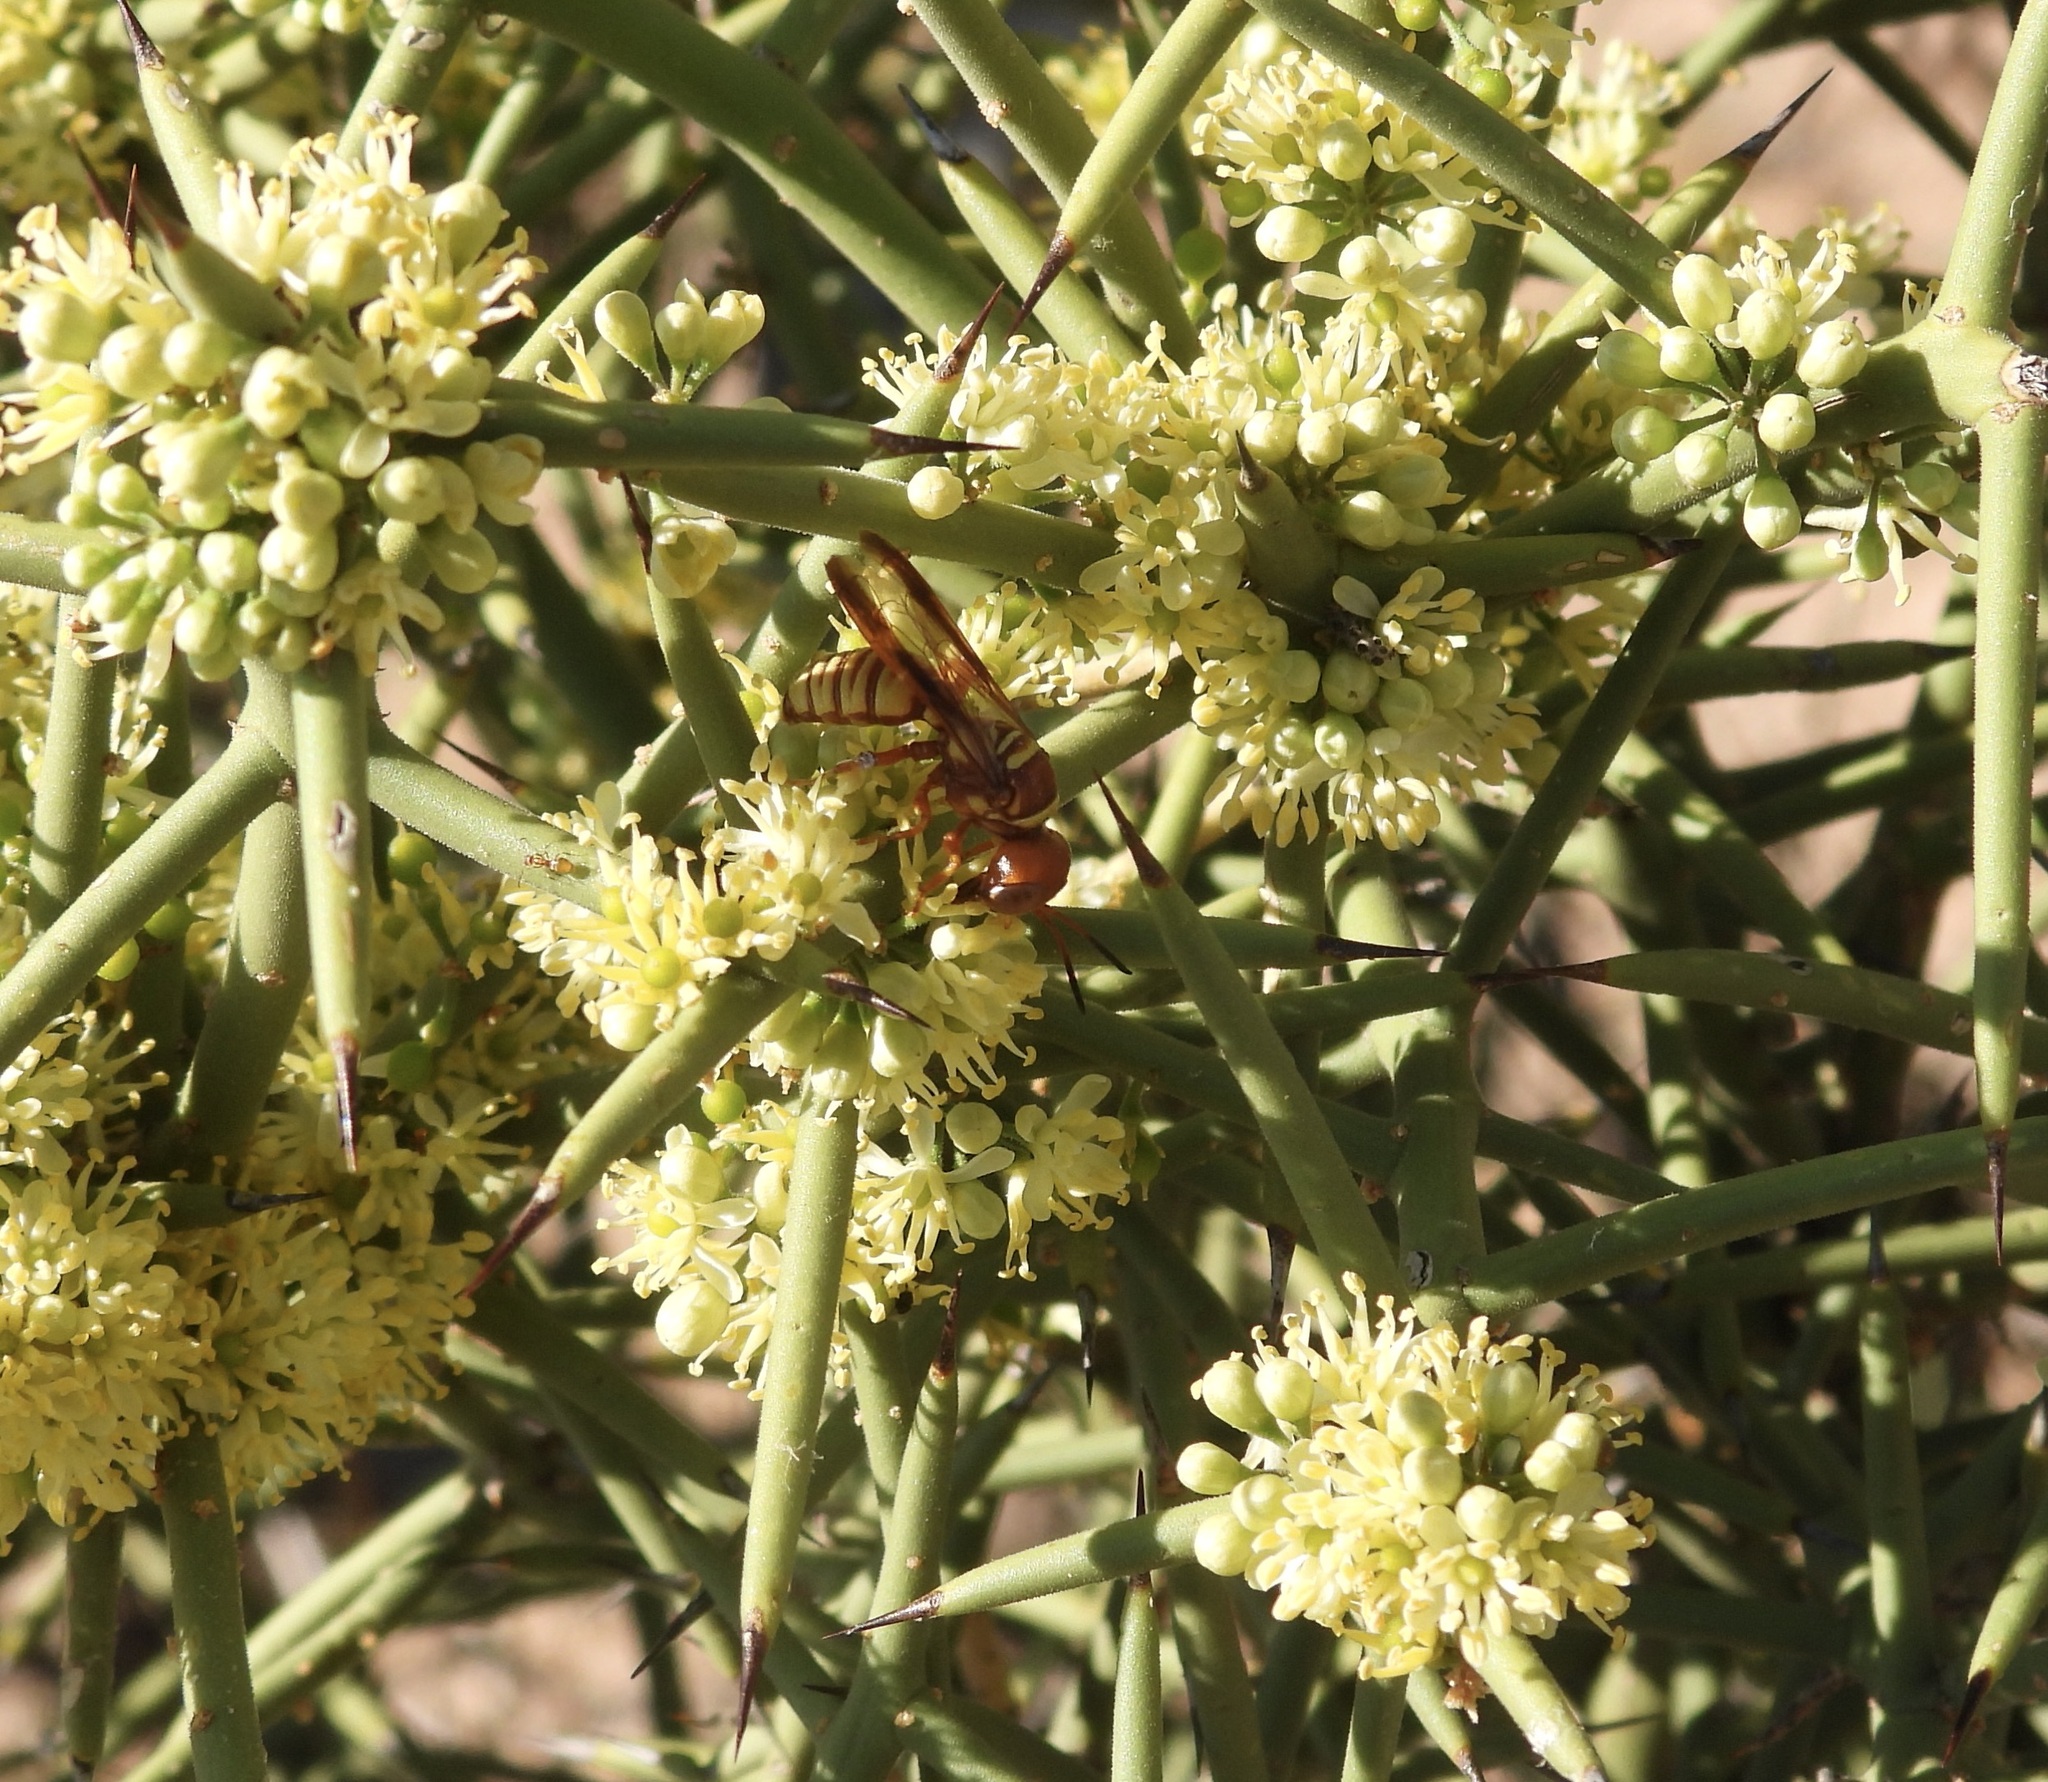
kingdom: Animalia
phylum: Arthropoda
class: Insecta
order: Hymenoptera
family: Crabronidae
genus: Eucerceris
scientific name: Eucerceris canaliculata
